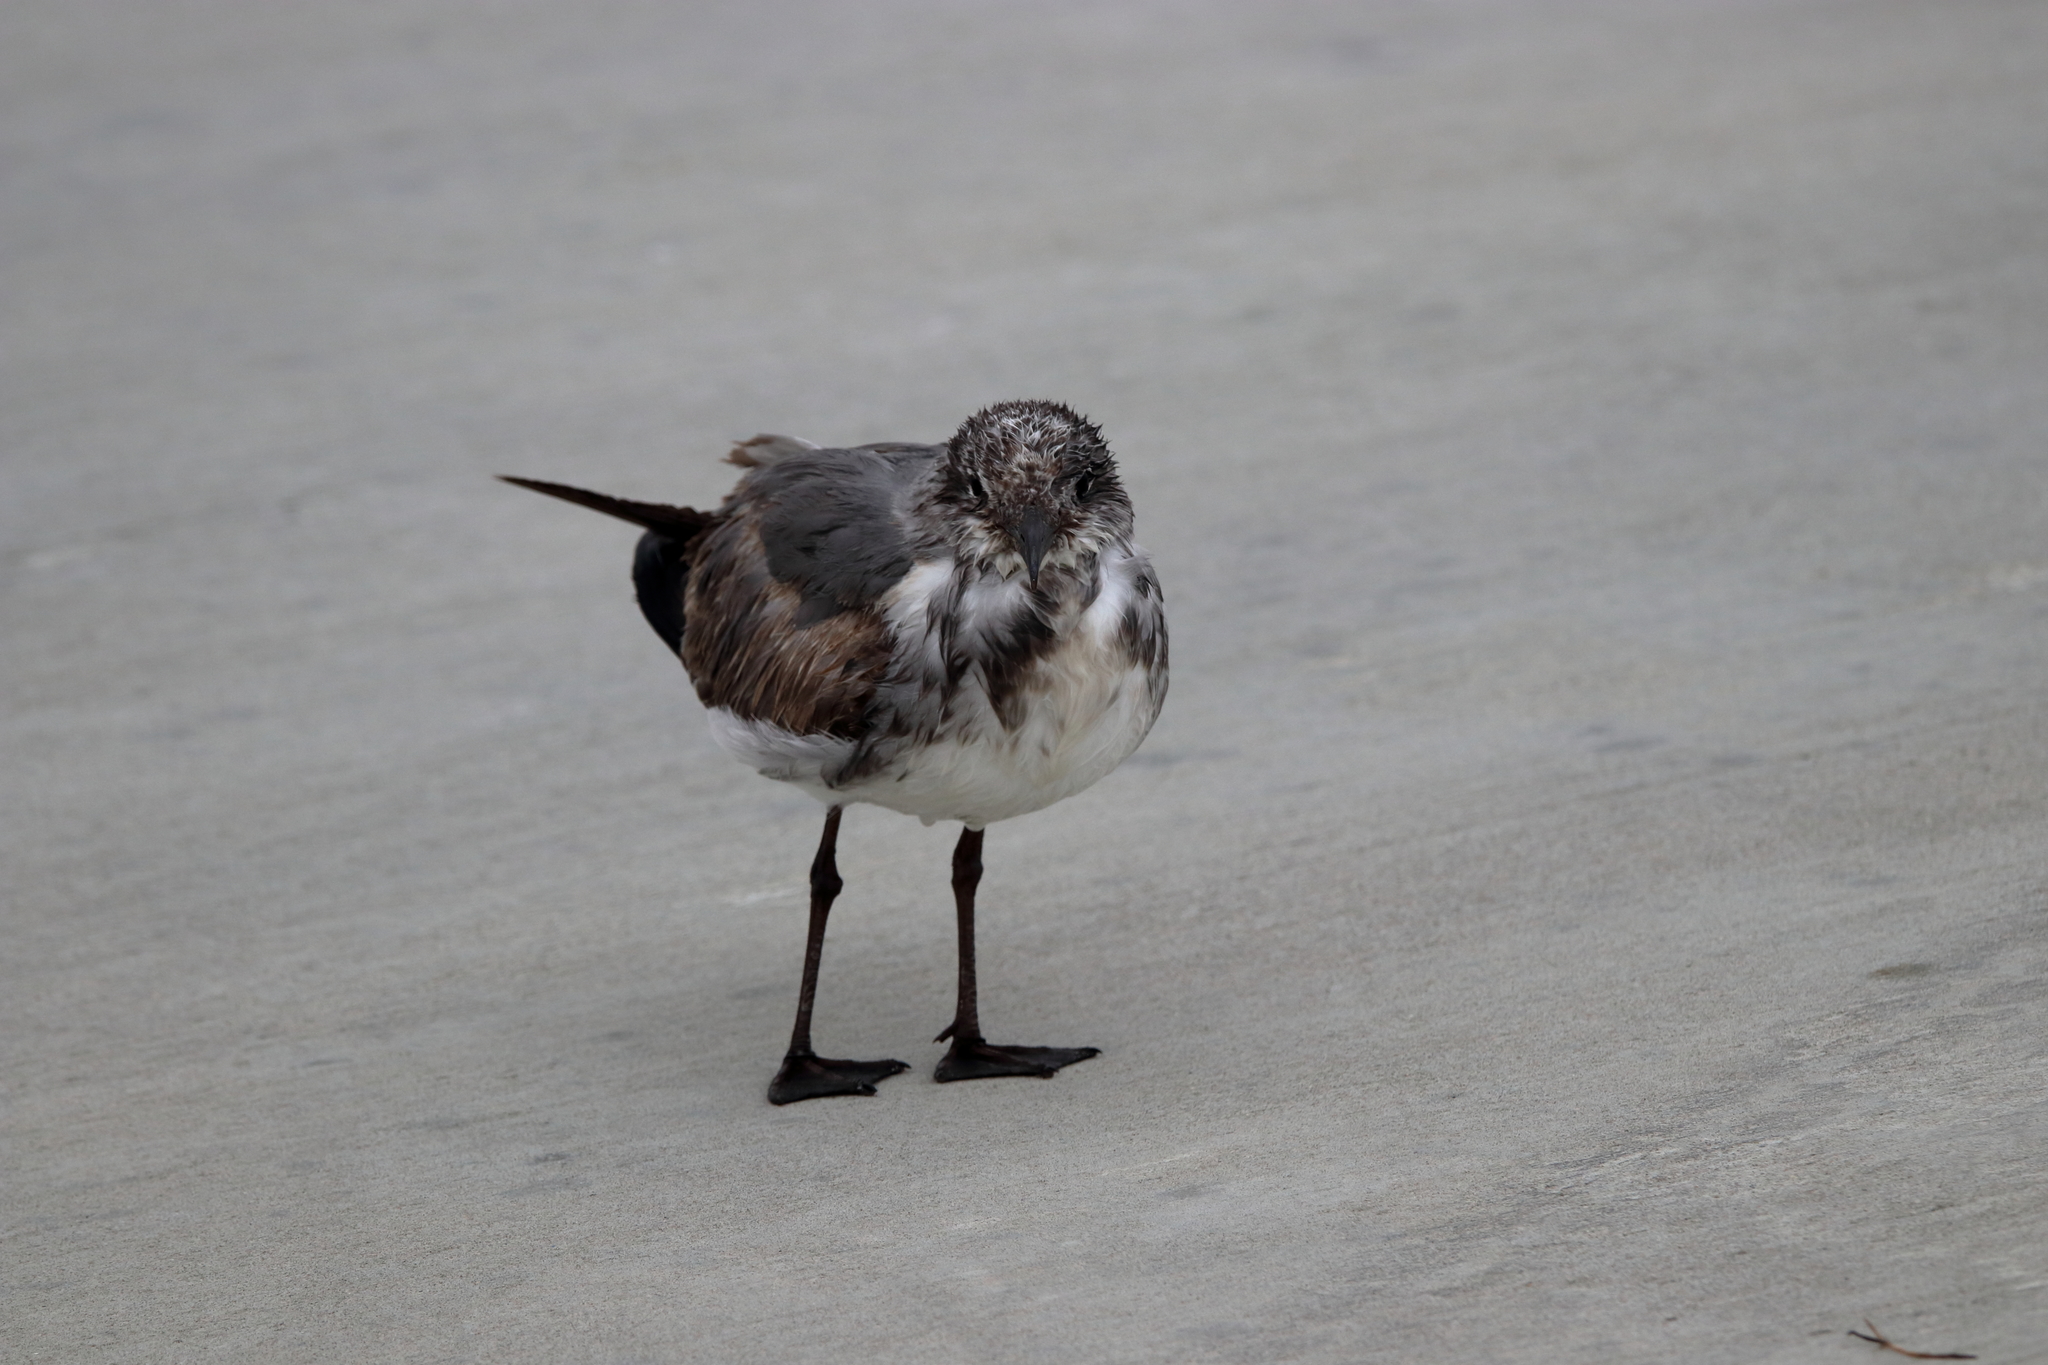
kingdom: Animalia
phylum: Chordata
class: Aves
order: Charadriiformes
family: Laridae
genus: Leucophaeus
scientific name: Leucophaeus atricilla
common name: Laughing gull
